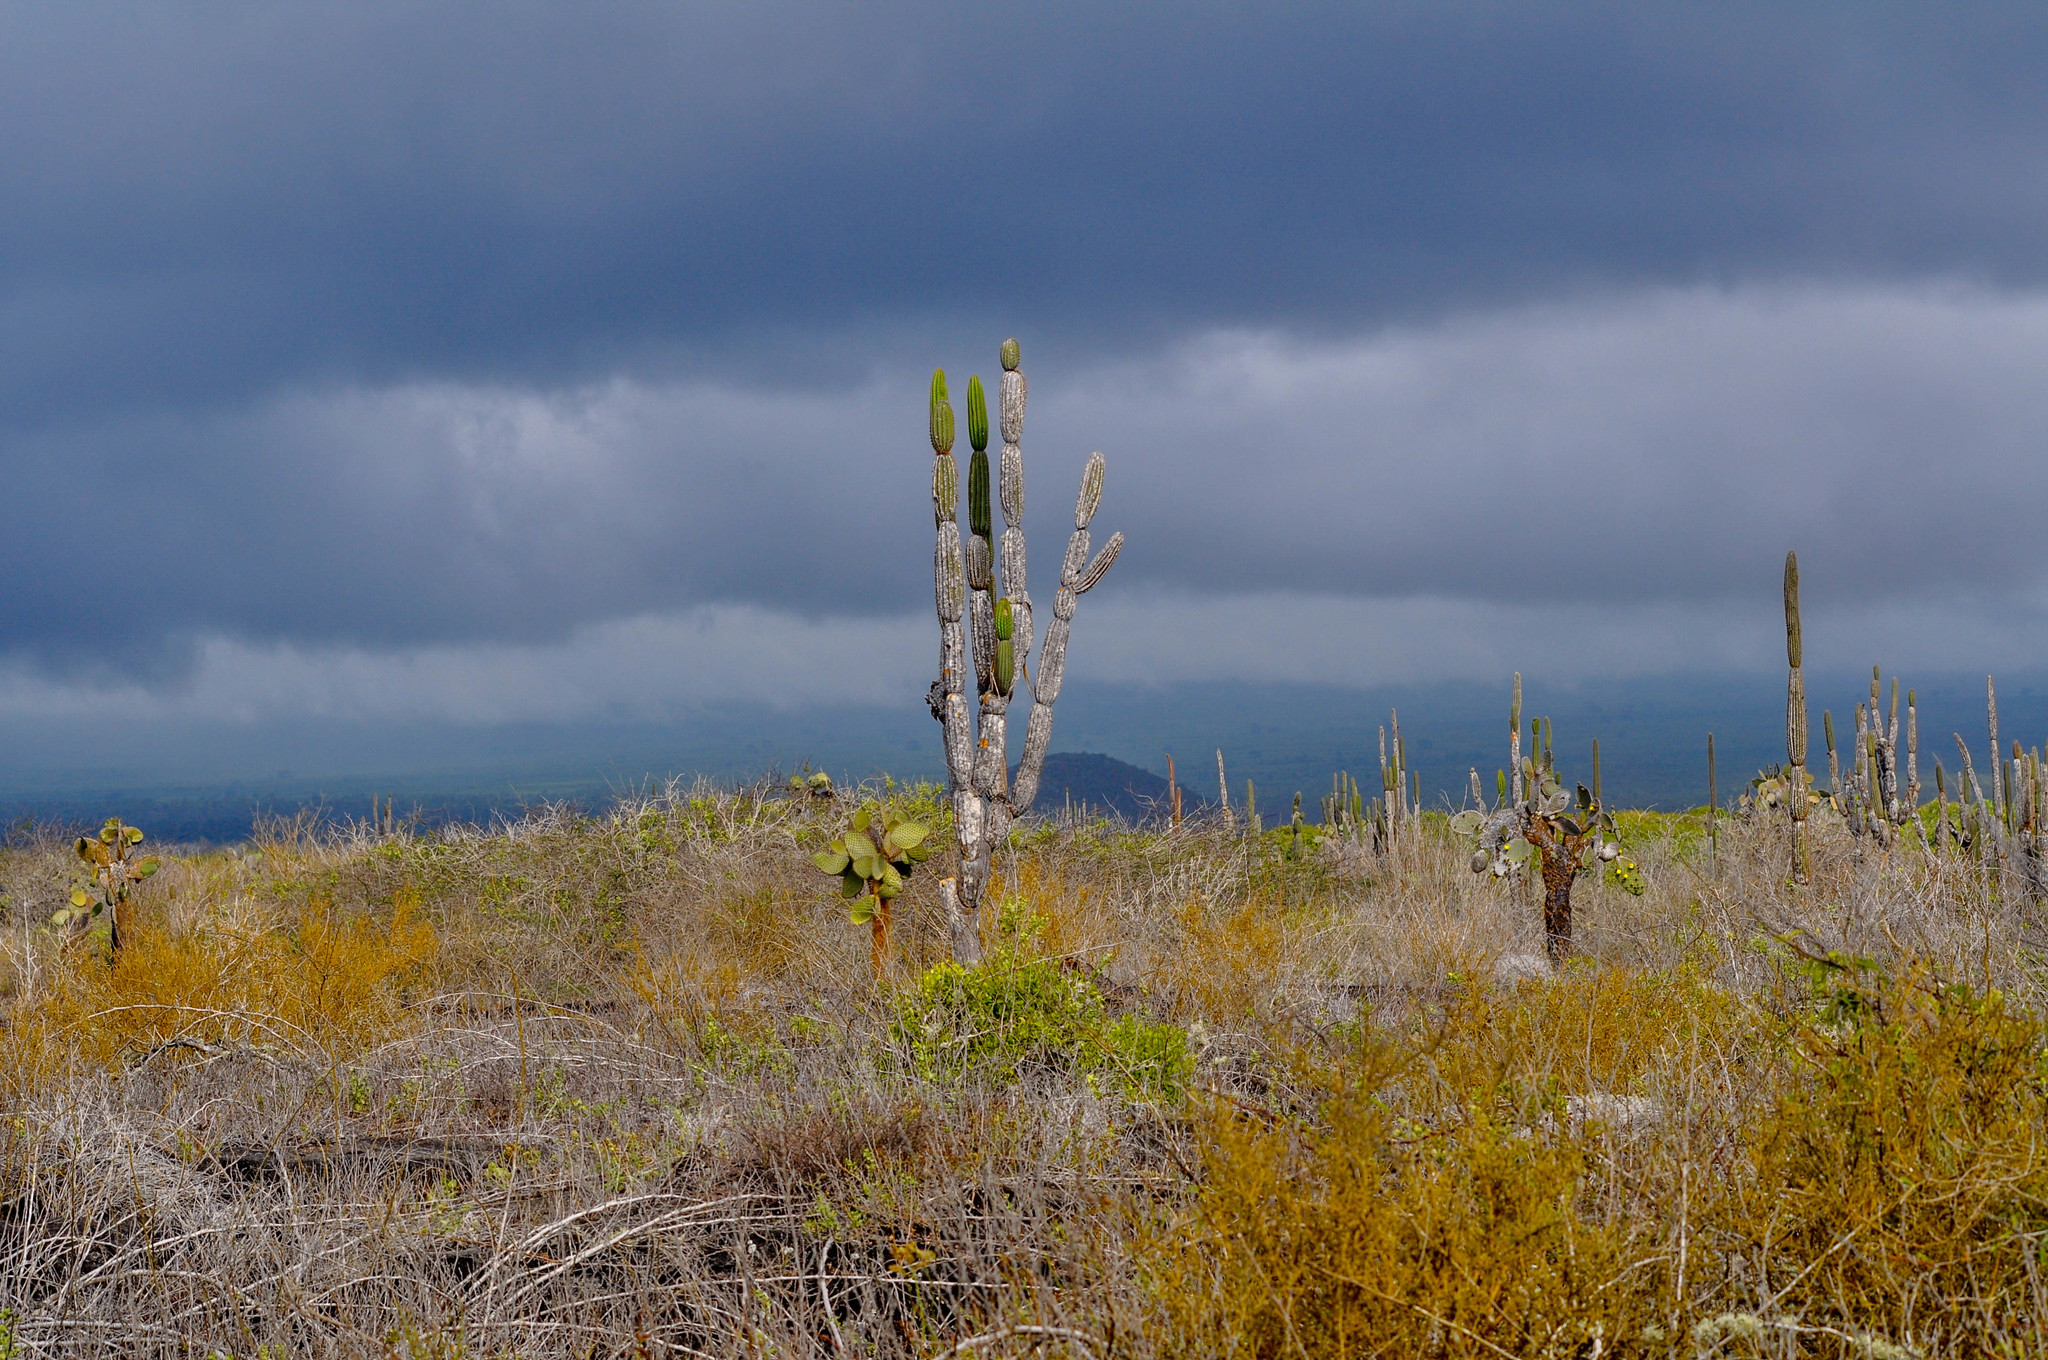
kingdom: Plantae
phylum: Tracheophyta
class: Magnoliopsida
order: Caryophyllales
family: Cactaceae
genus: Opuntia
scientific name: Opuntia galapageia
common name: Galápagos prickly pear
